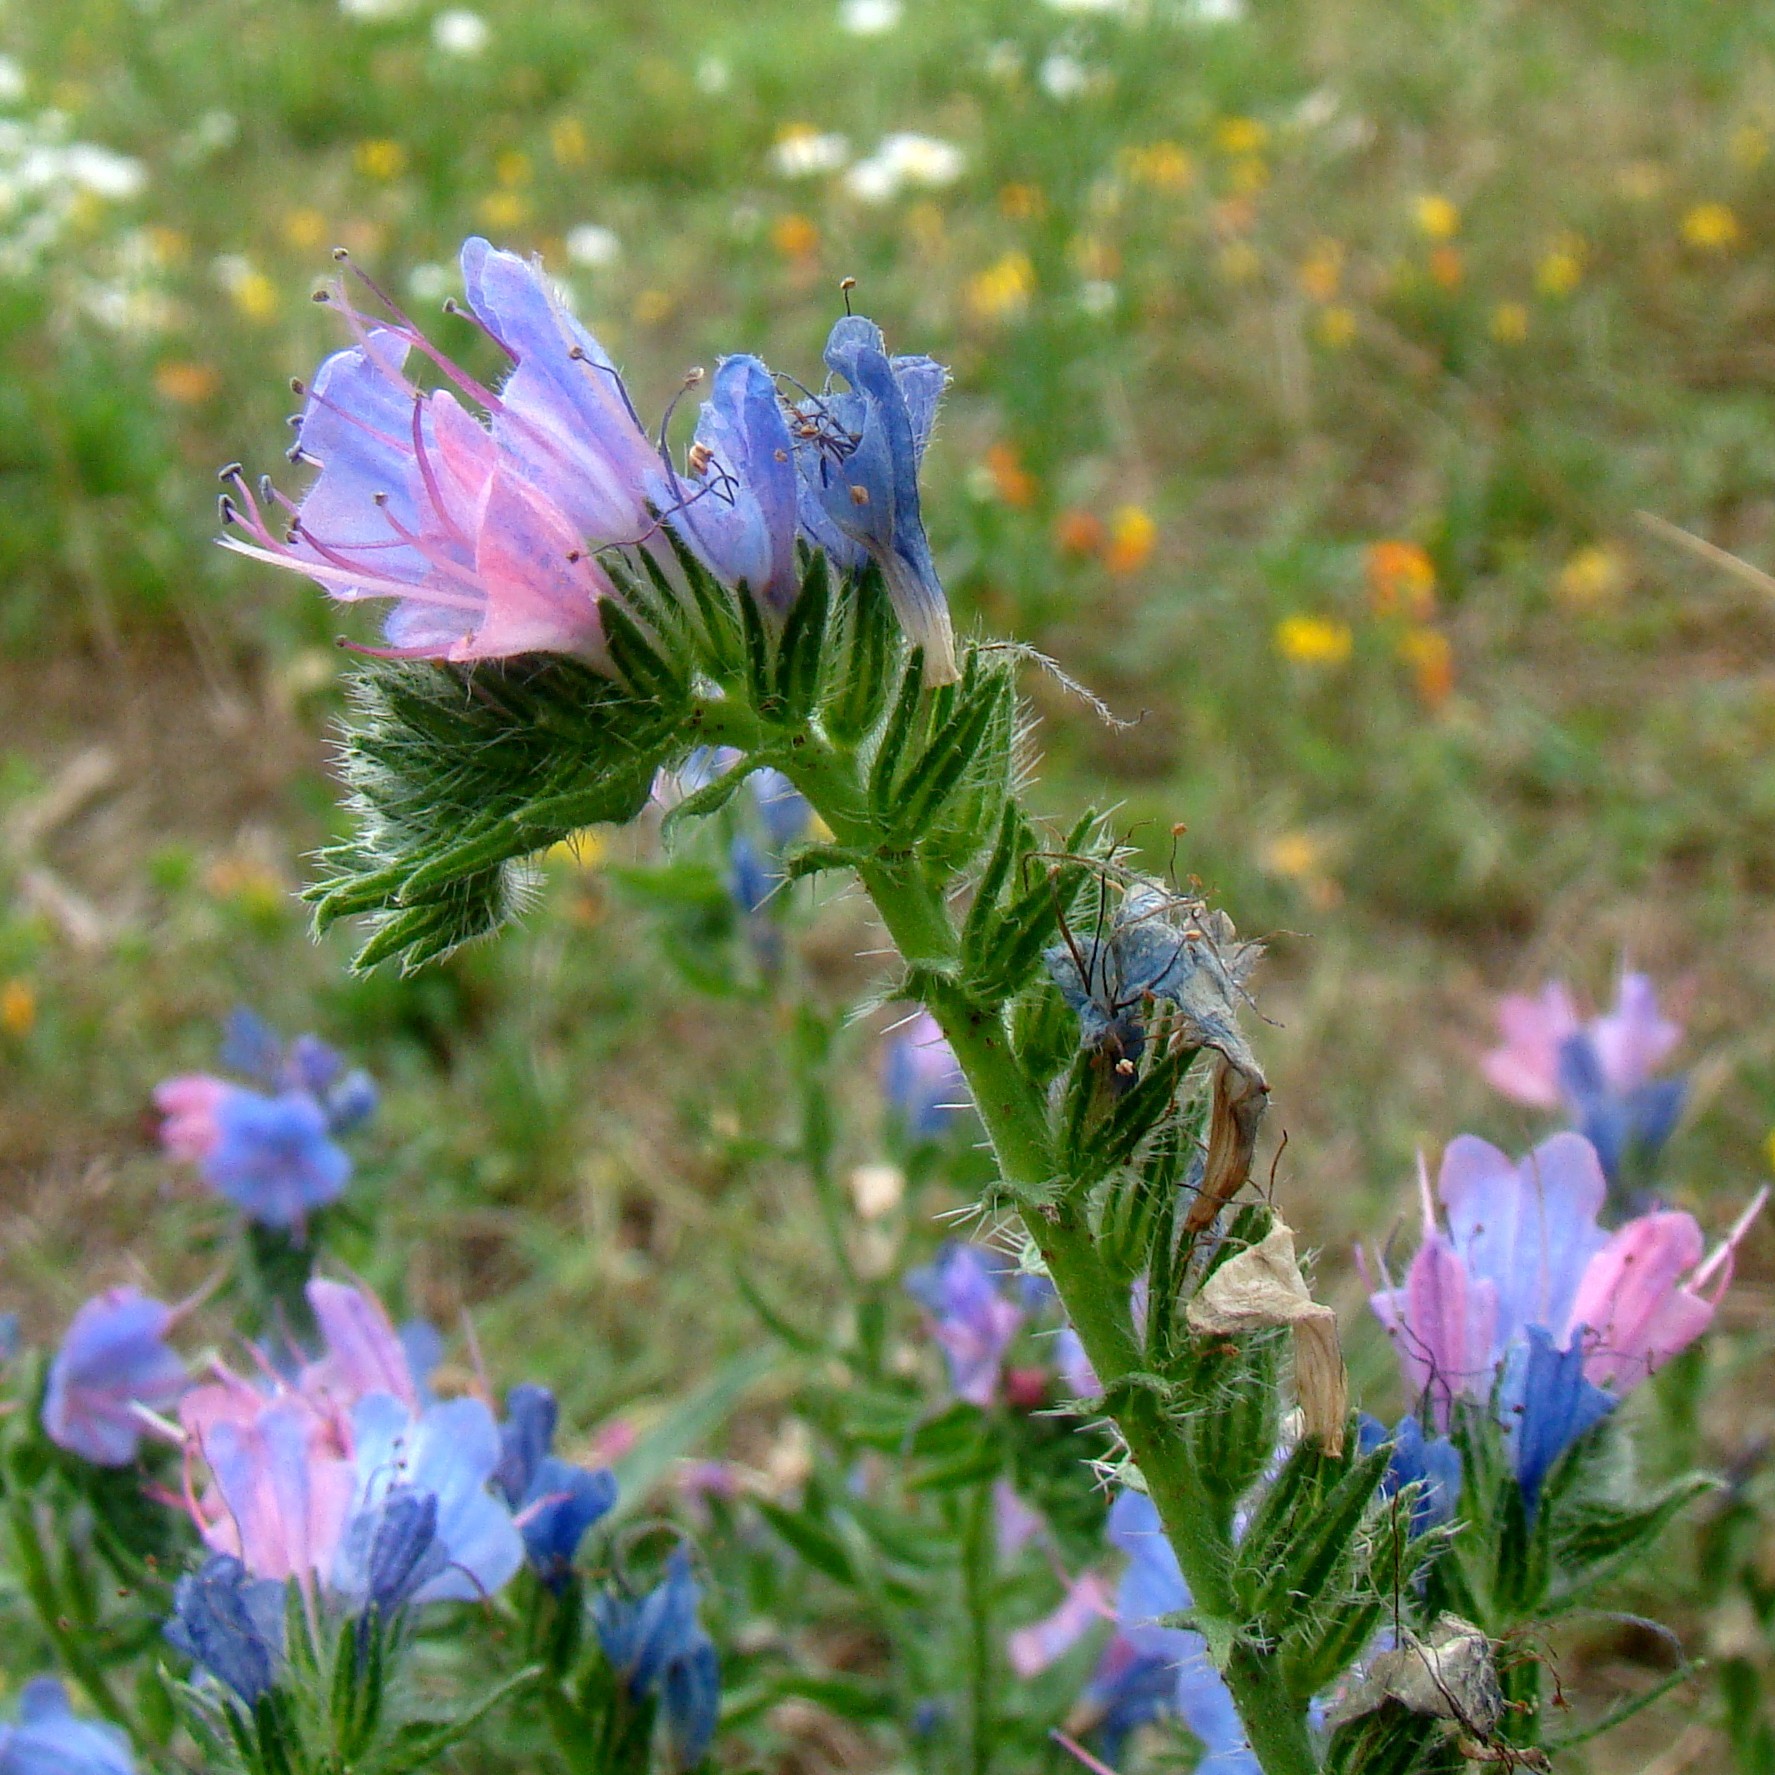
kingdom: Plantae
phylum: Tracheophyta
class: Magnoliopsida
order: Boraginales
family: Boraginaceae
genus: Echium
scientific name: Echium vulgare
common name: Common viper's bugloss
